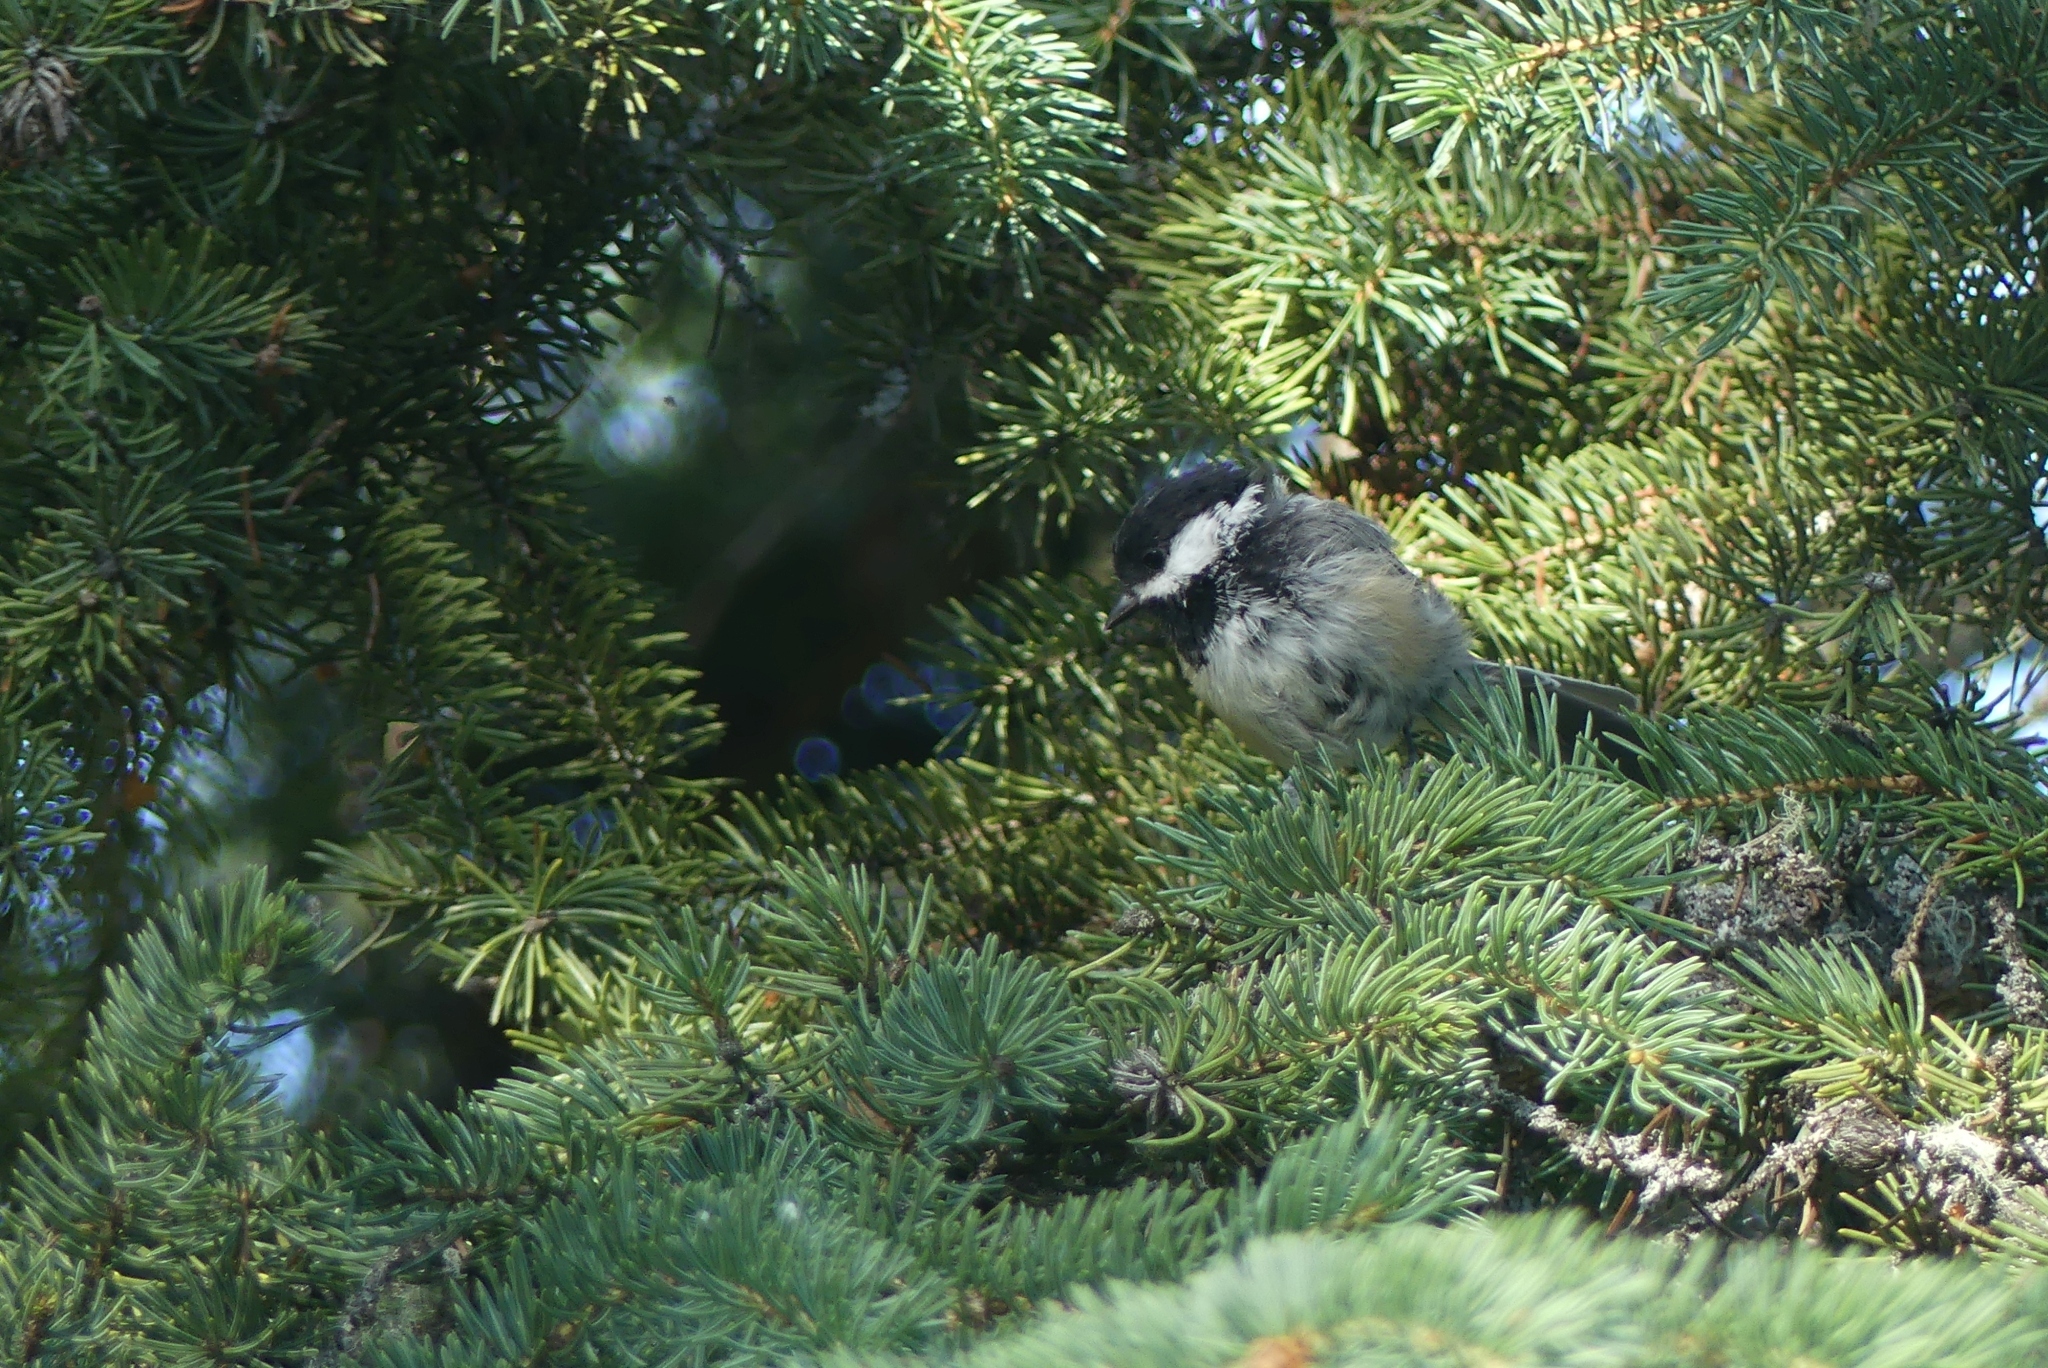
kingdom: Animalia
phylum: Chordata
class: Aves
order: Passeriformes
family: Paridae
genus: Poecile
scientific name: Poecile atricapillus
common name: Black-capped chickadee
